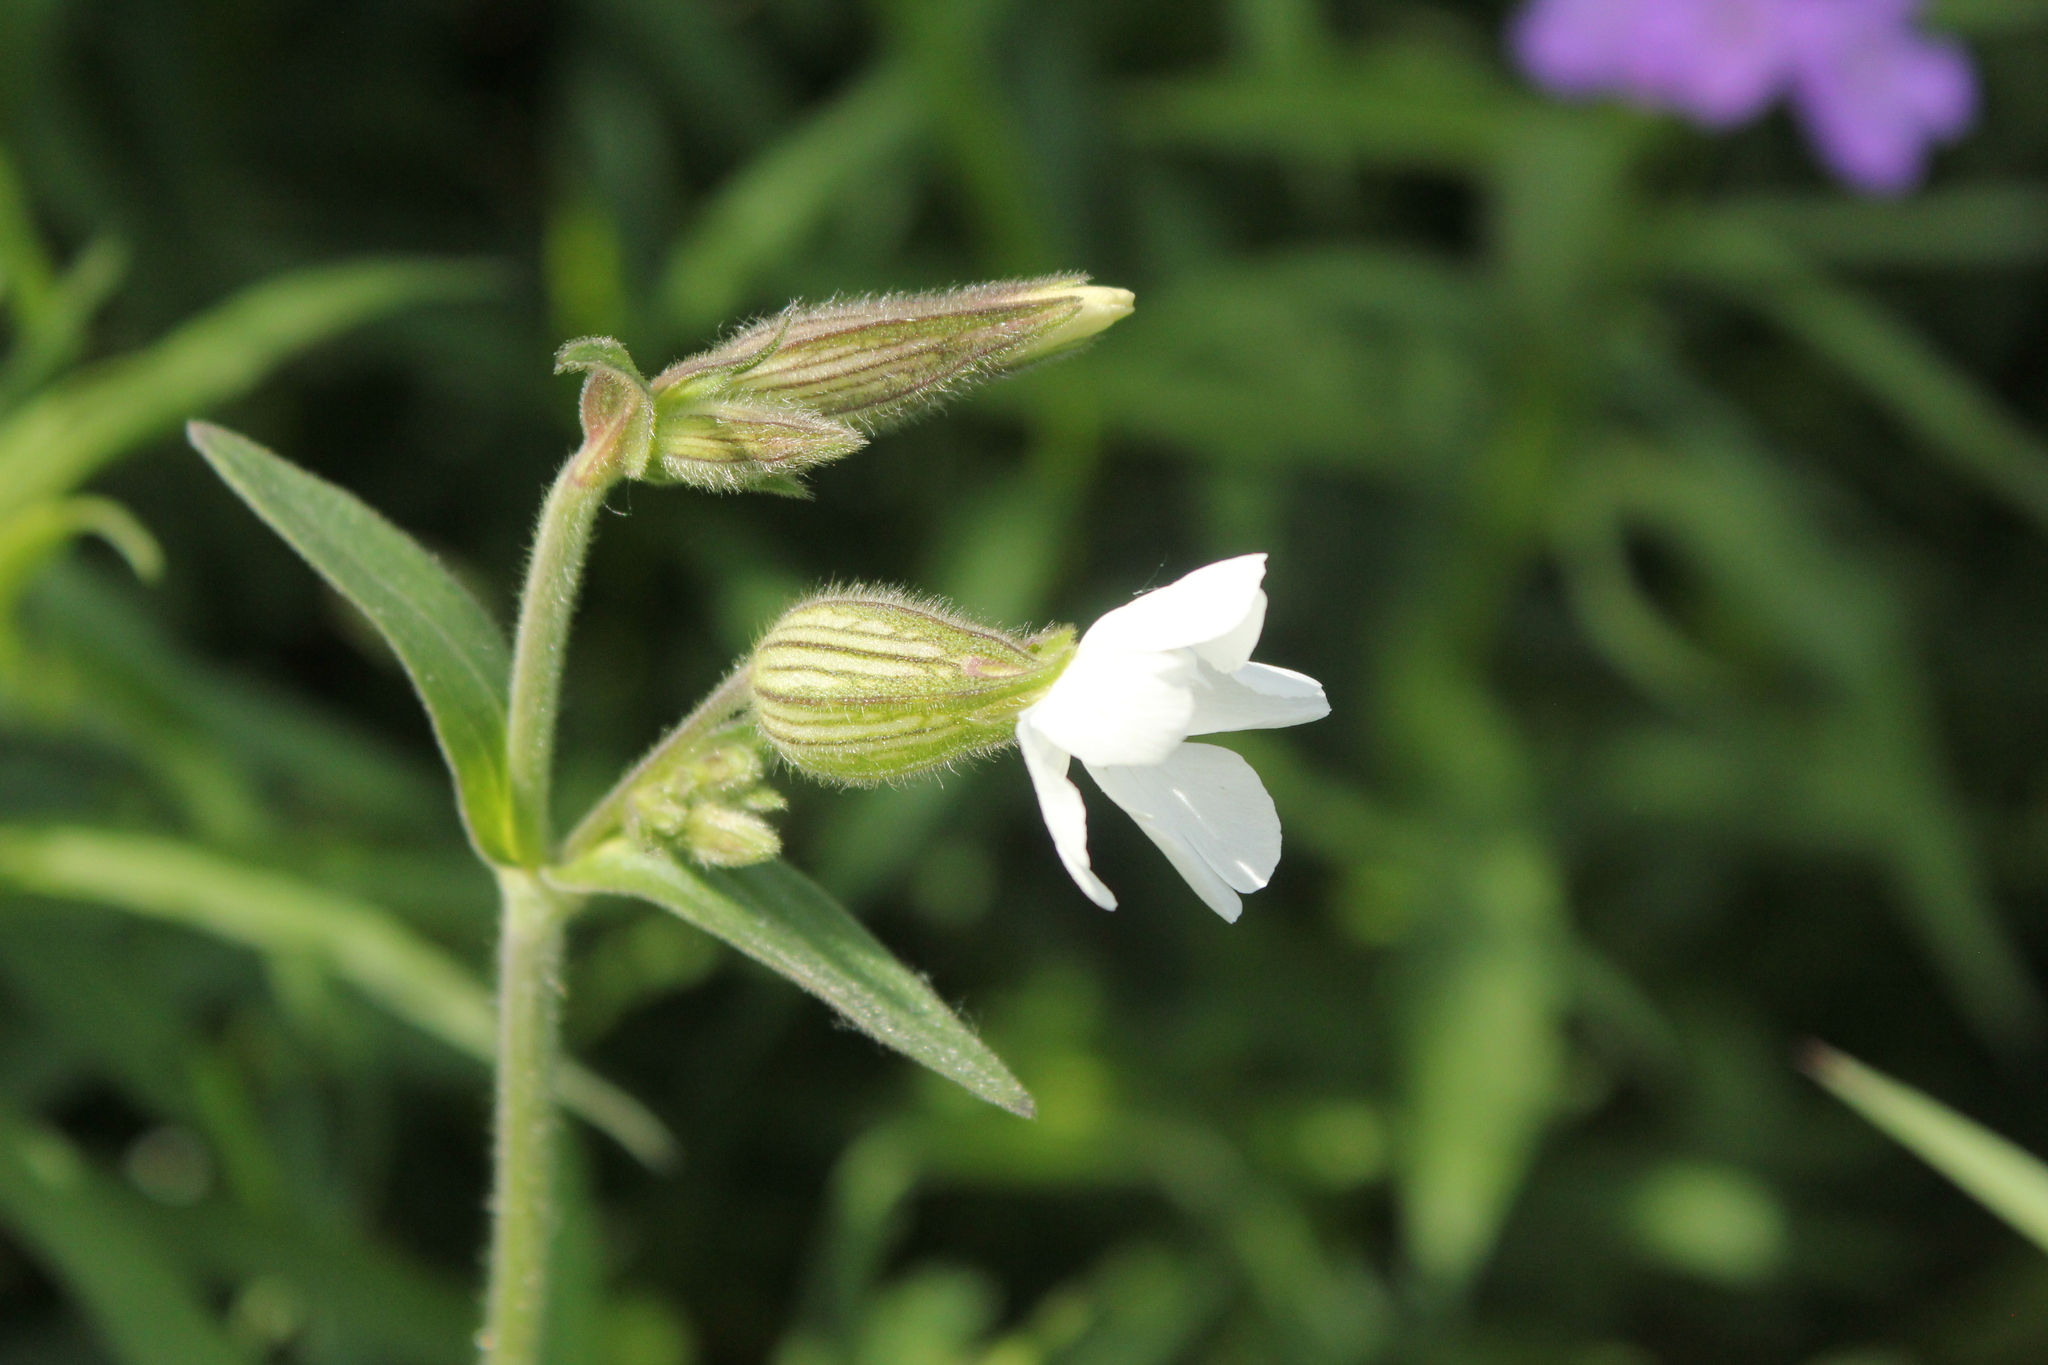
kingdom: Plantae
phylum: Tracheophyta
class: Magnoliopsida
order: Caryophyllales
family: Caryophyllaceae
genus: Silene
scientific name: Silene latifolia
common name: White campion
